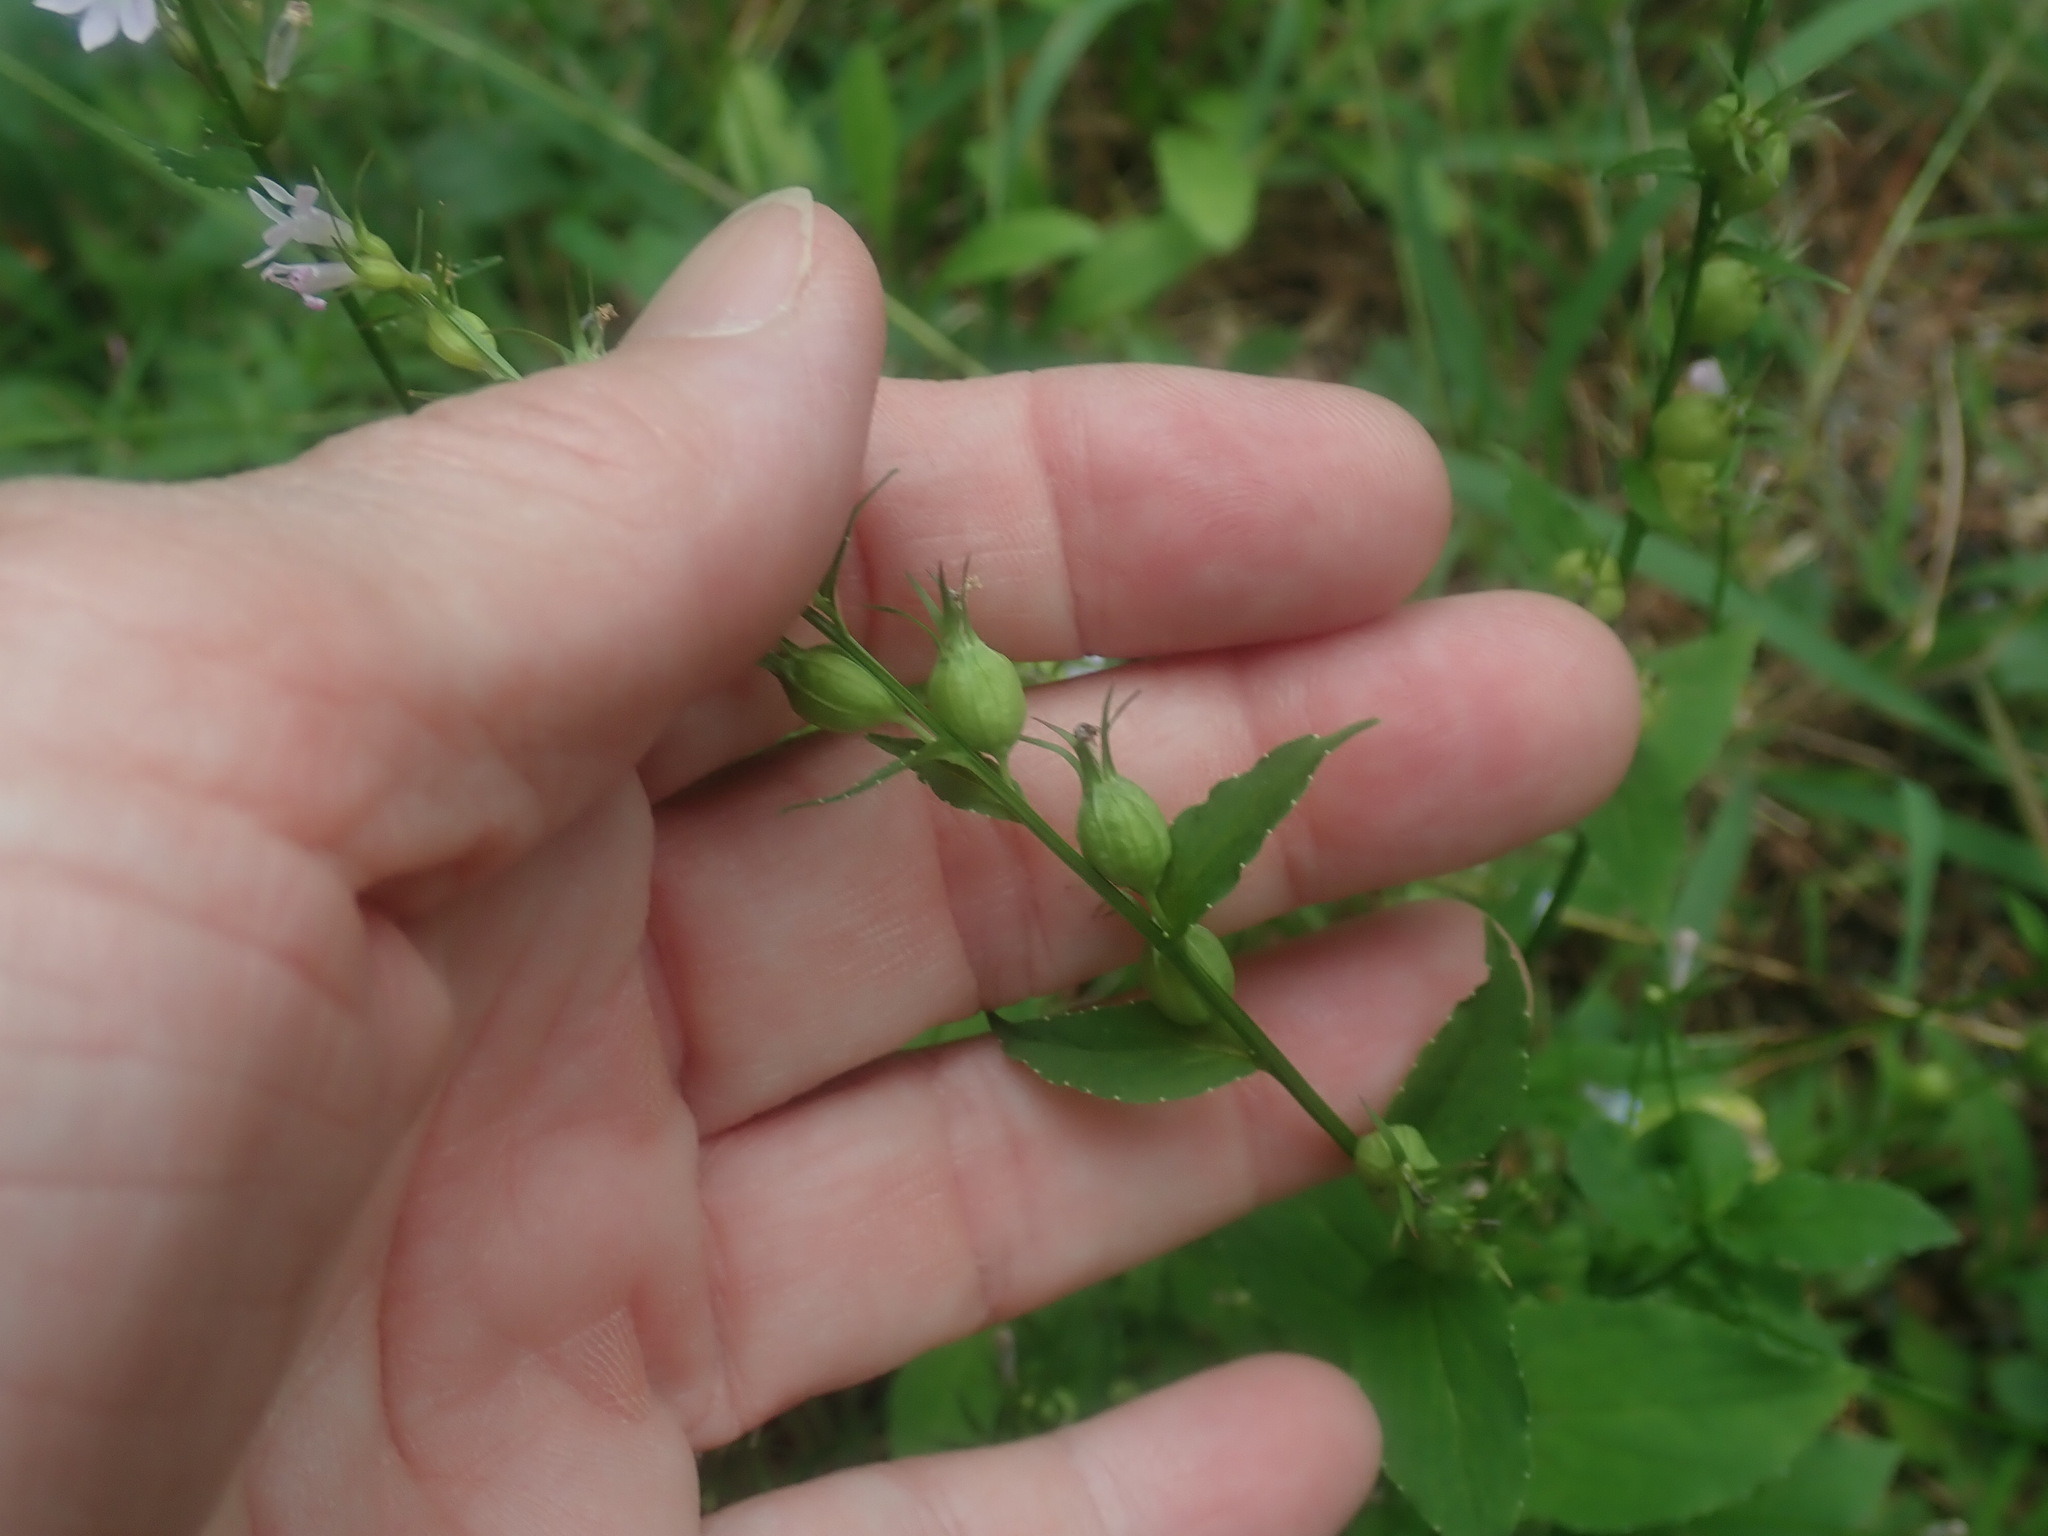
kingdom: Plantae
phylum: Tracheophyta
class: Magnoliopsida
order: Asterales
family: Campanulaceae
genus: Lobelia
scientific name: Lobelia inflata
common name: Indian tobacco
